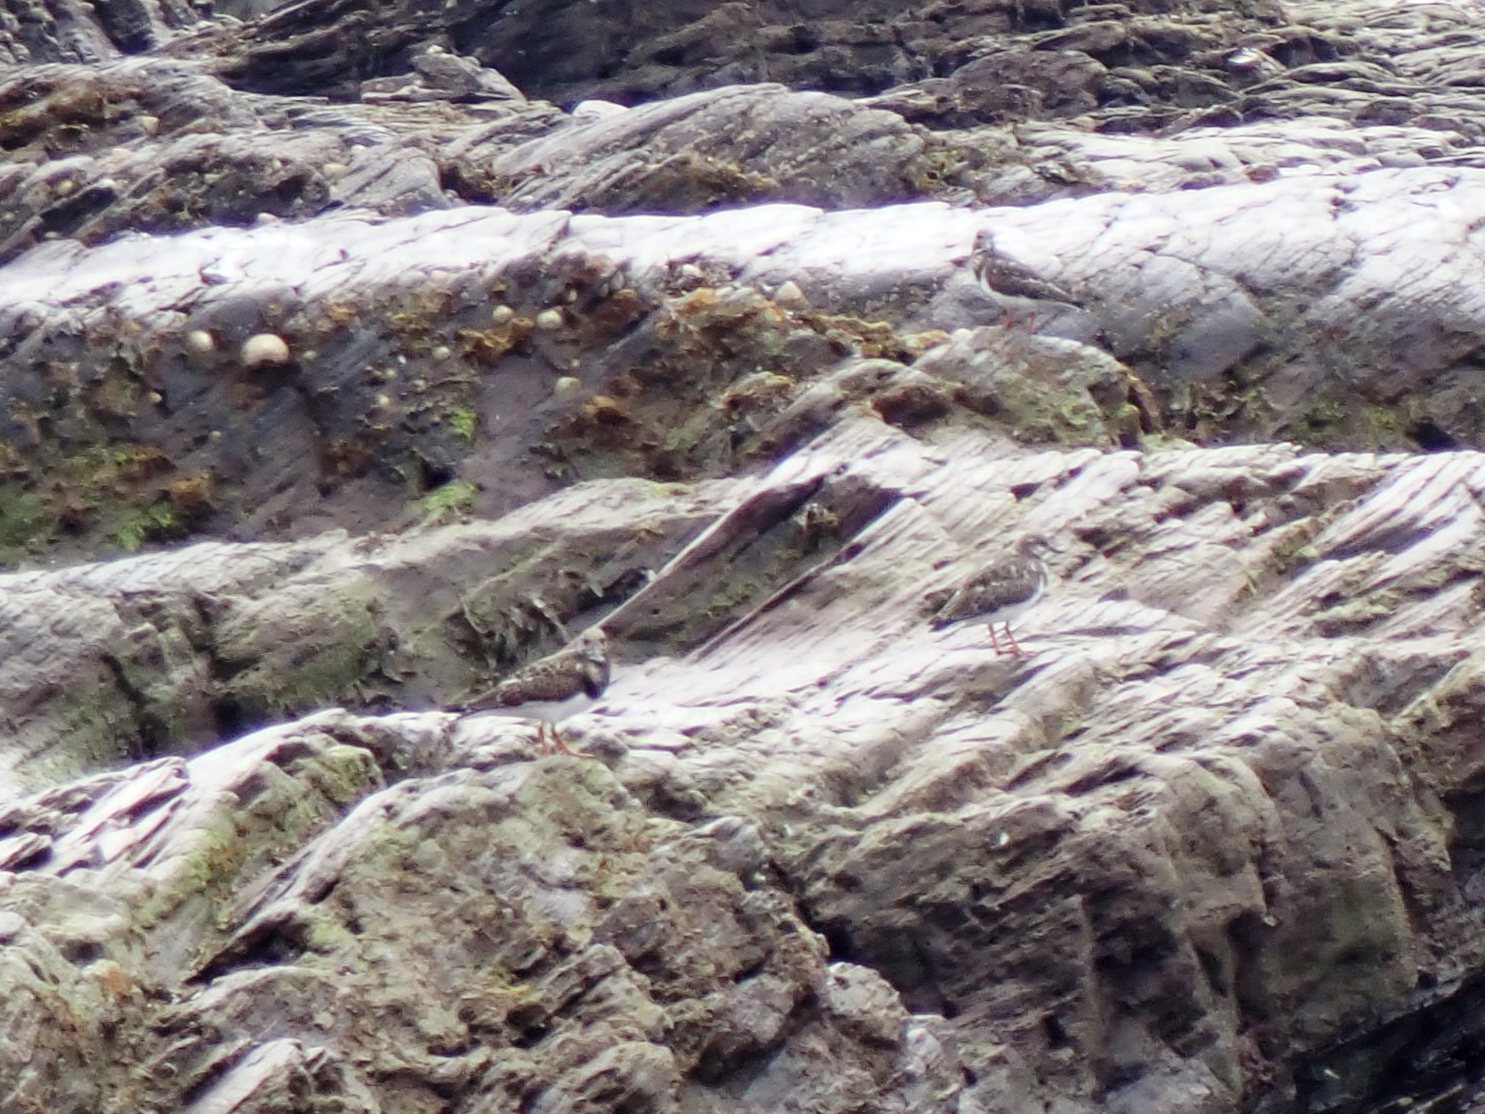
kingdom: Animalia
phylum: Chordata
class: Aves
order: Charadriiformes
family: Scolopacidae
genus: Arenaria
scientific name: Arenaria interpres
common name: Ruddy turnstone
